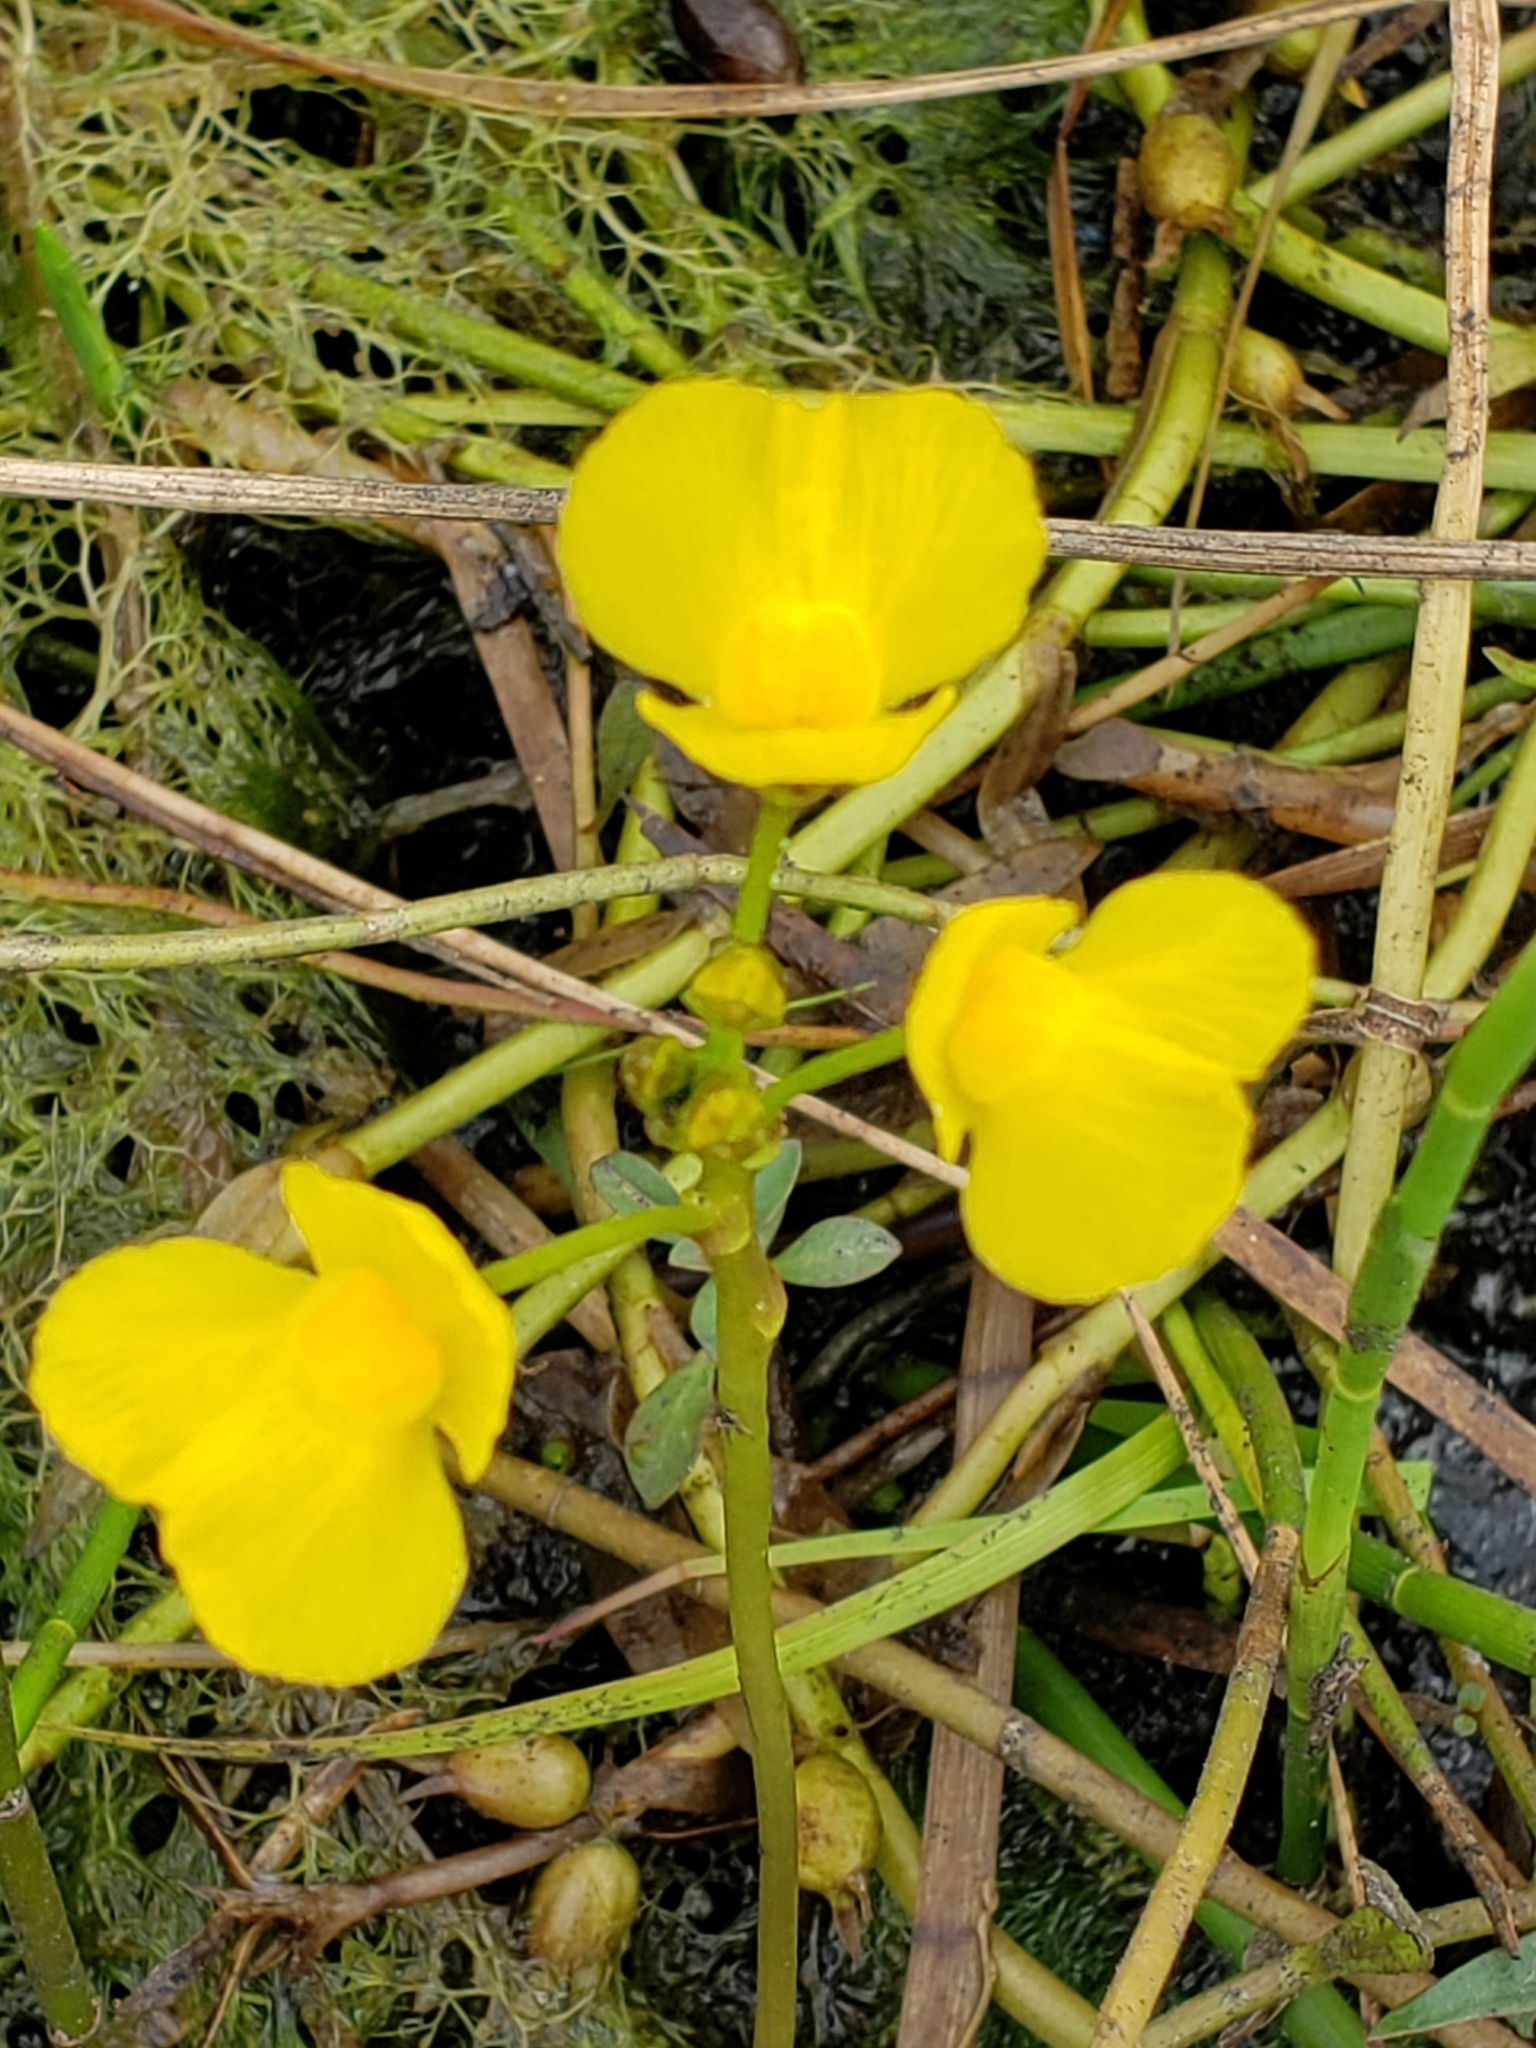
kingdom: Plantae
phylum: Tracheophyta
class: Magnoliopsida
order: Lamiales
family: Lentibulariaceae
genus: Utricularia
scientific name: Utricularia foliosa
